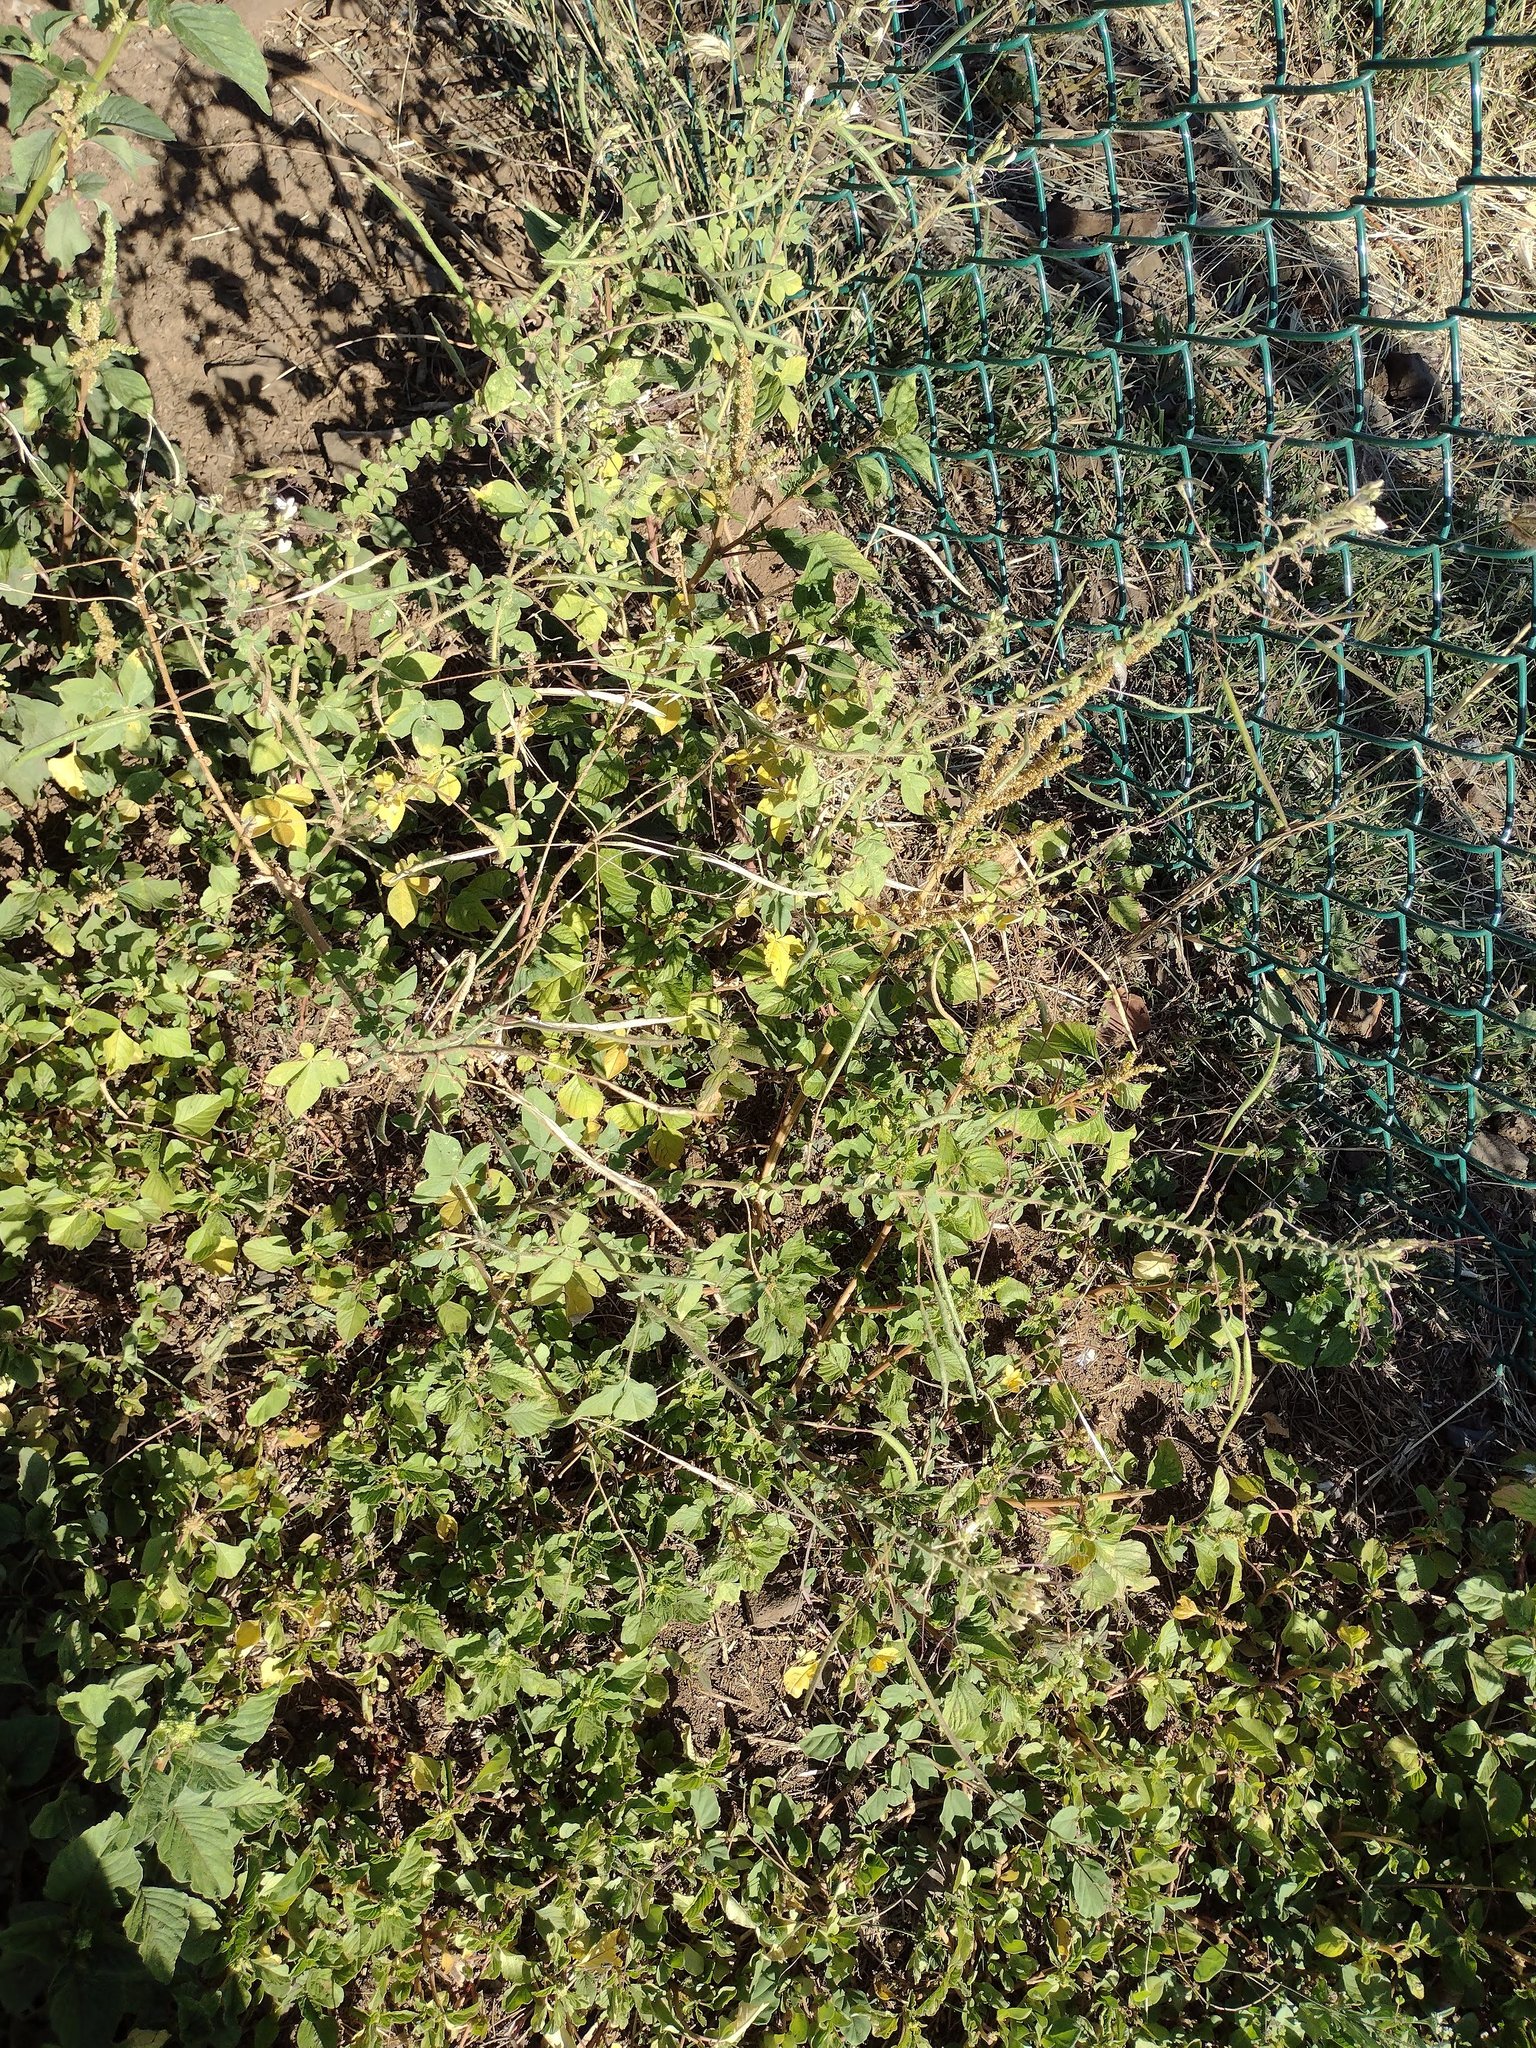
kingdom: Plantae
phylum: Tracheophyta
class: Magnoliopsida
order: Brassicales
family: Cleomaceae
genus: Gynandropsis
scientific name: Gynandropsis gynandra
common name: Spiderwisp
